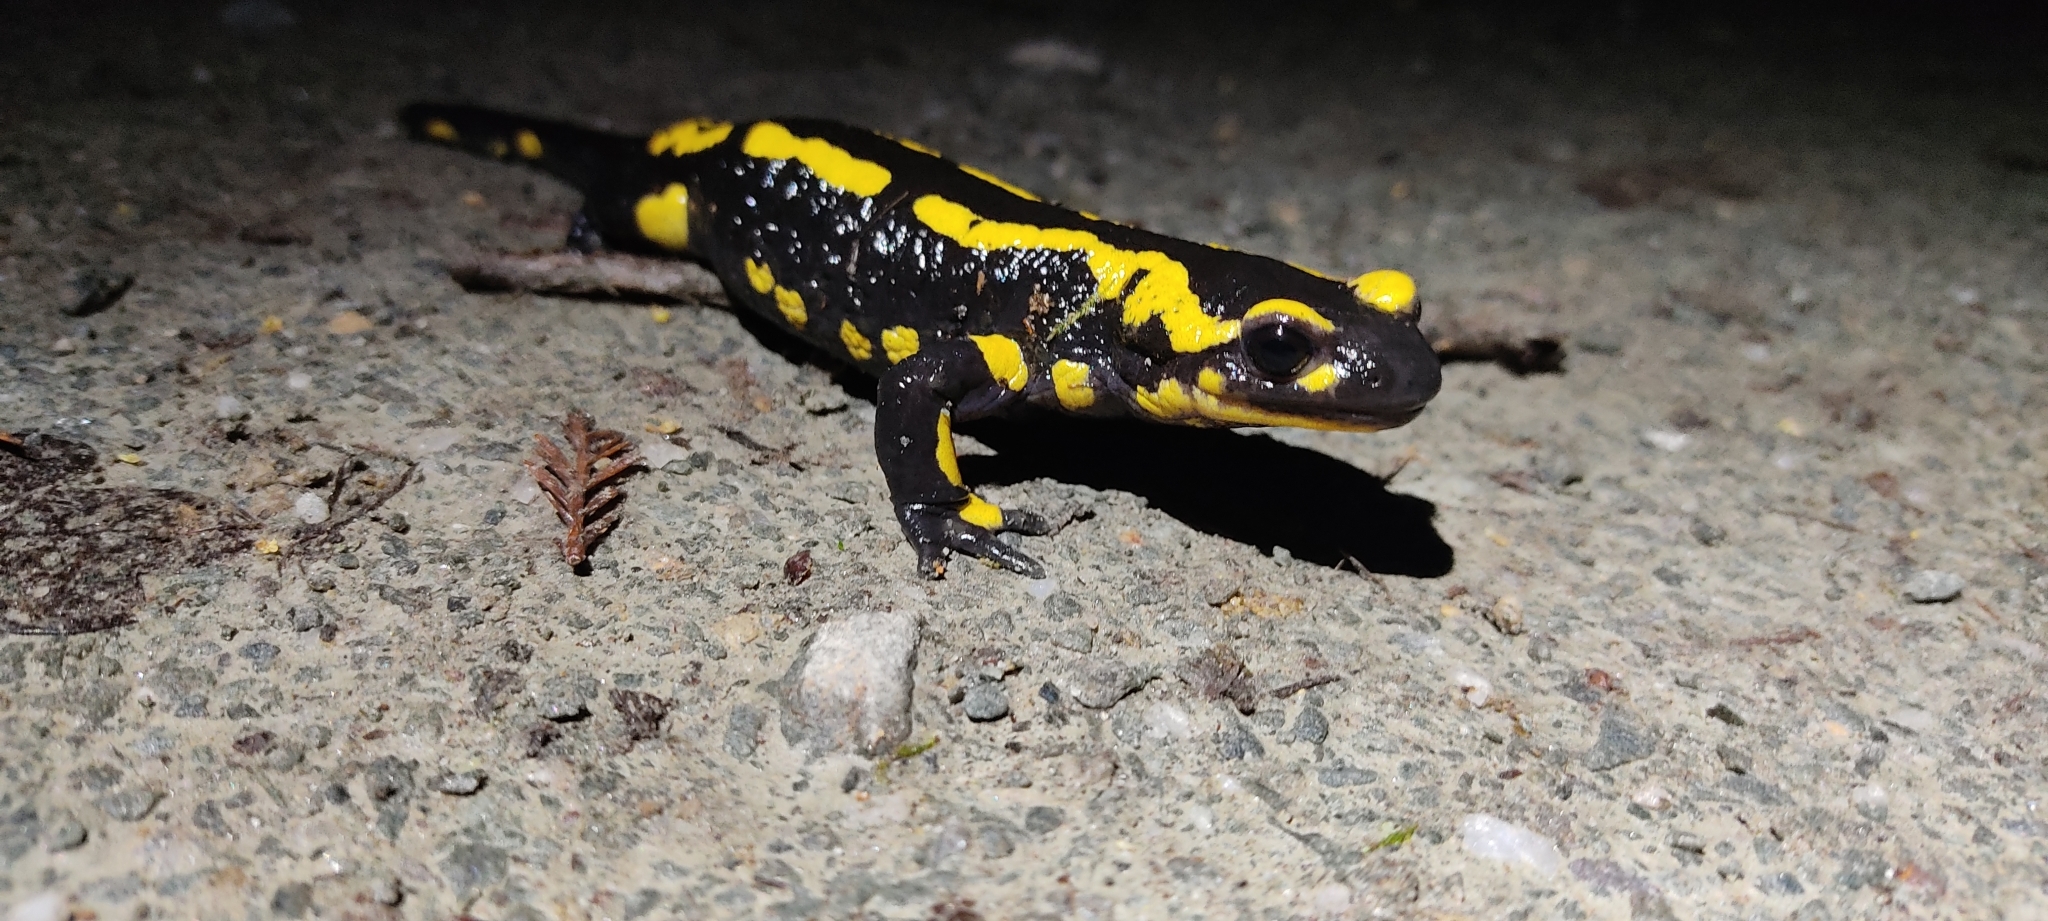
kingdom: Animalia
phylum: Chordata
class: Amphibia
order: Caudata
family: Salamandridae
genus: Salamandra
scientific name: Salamandra salamandra
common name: Fire salamander
